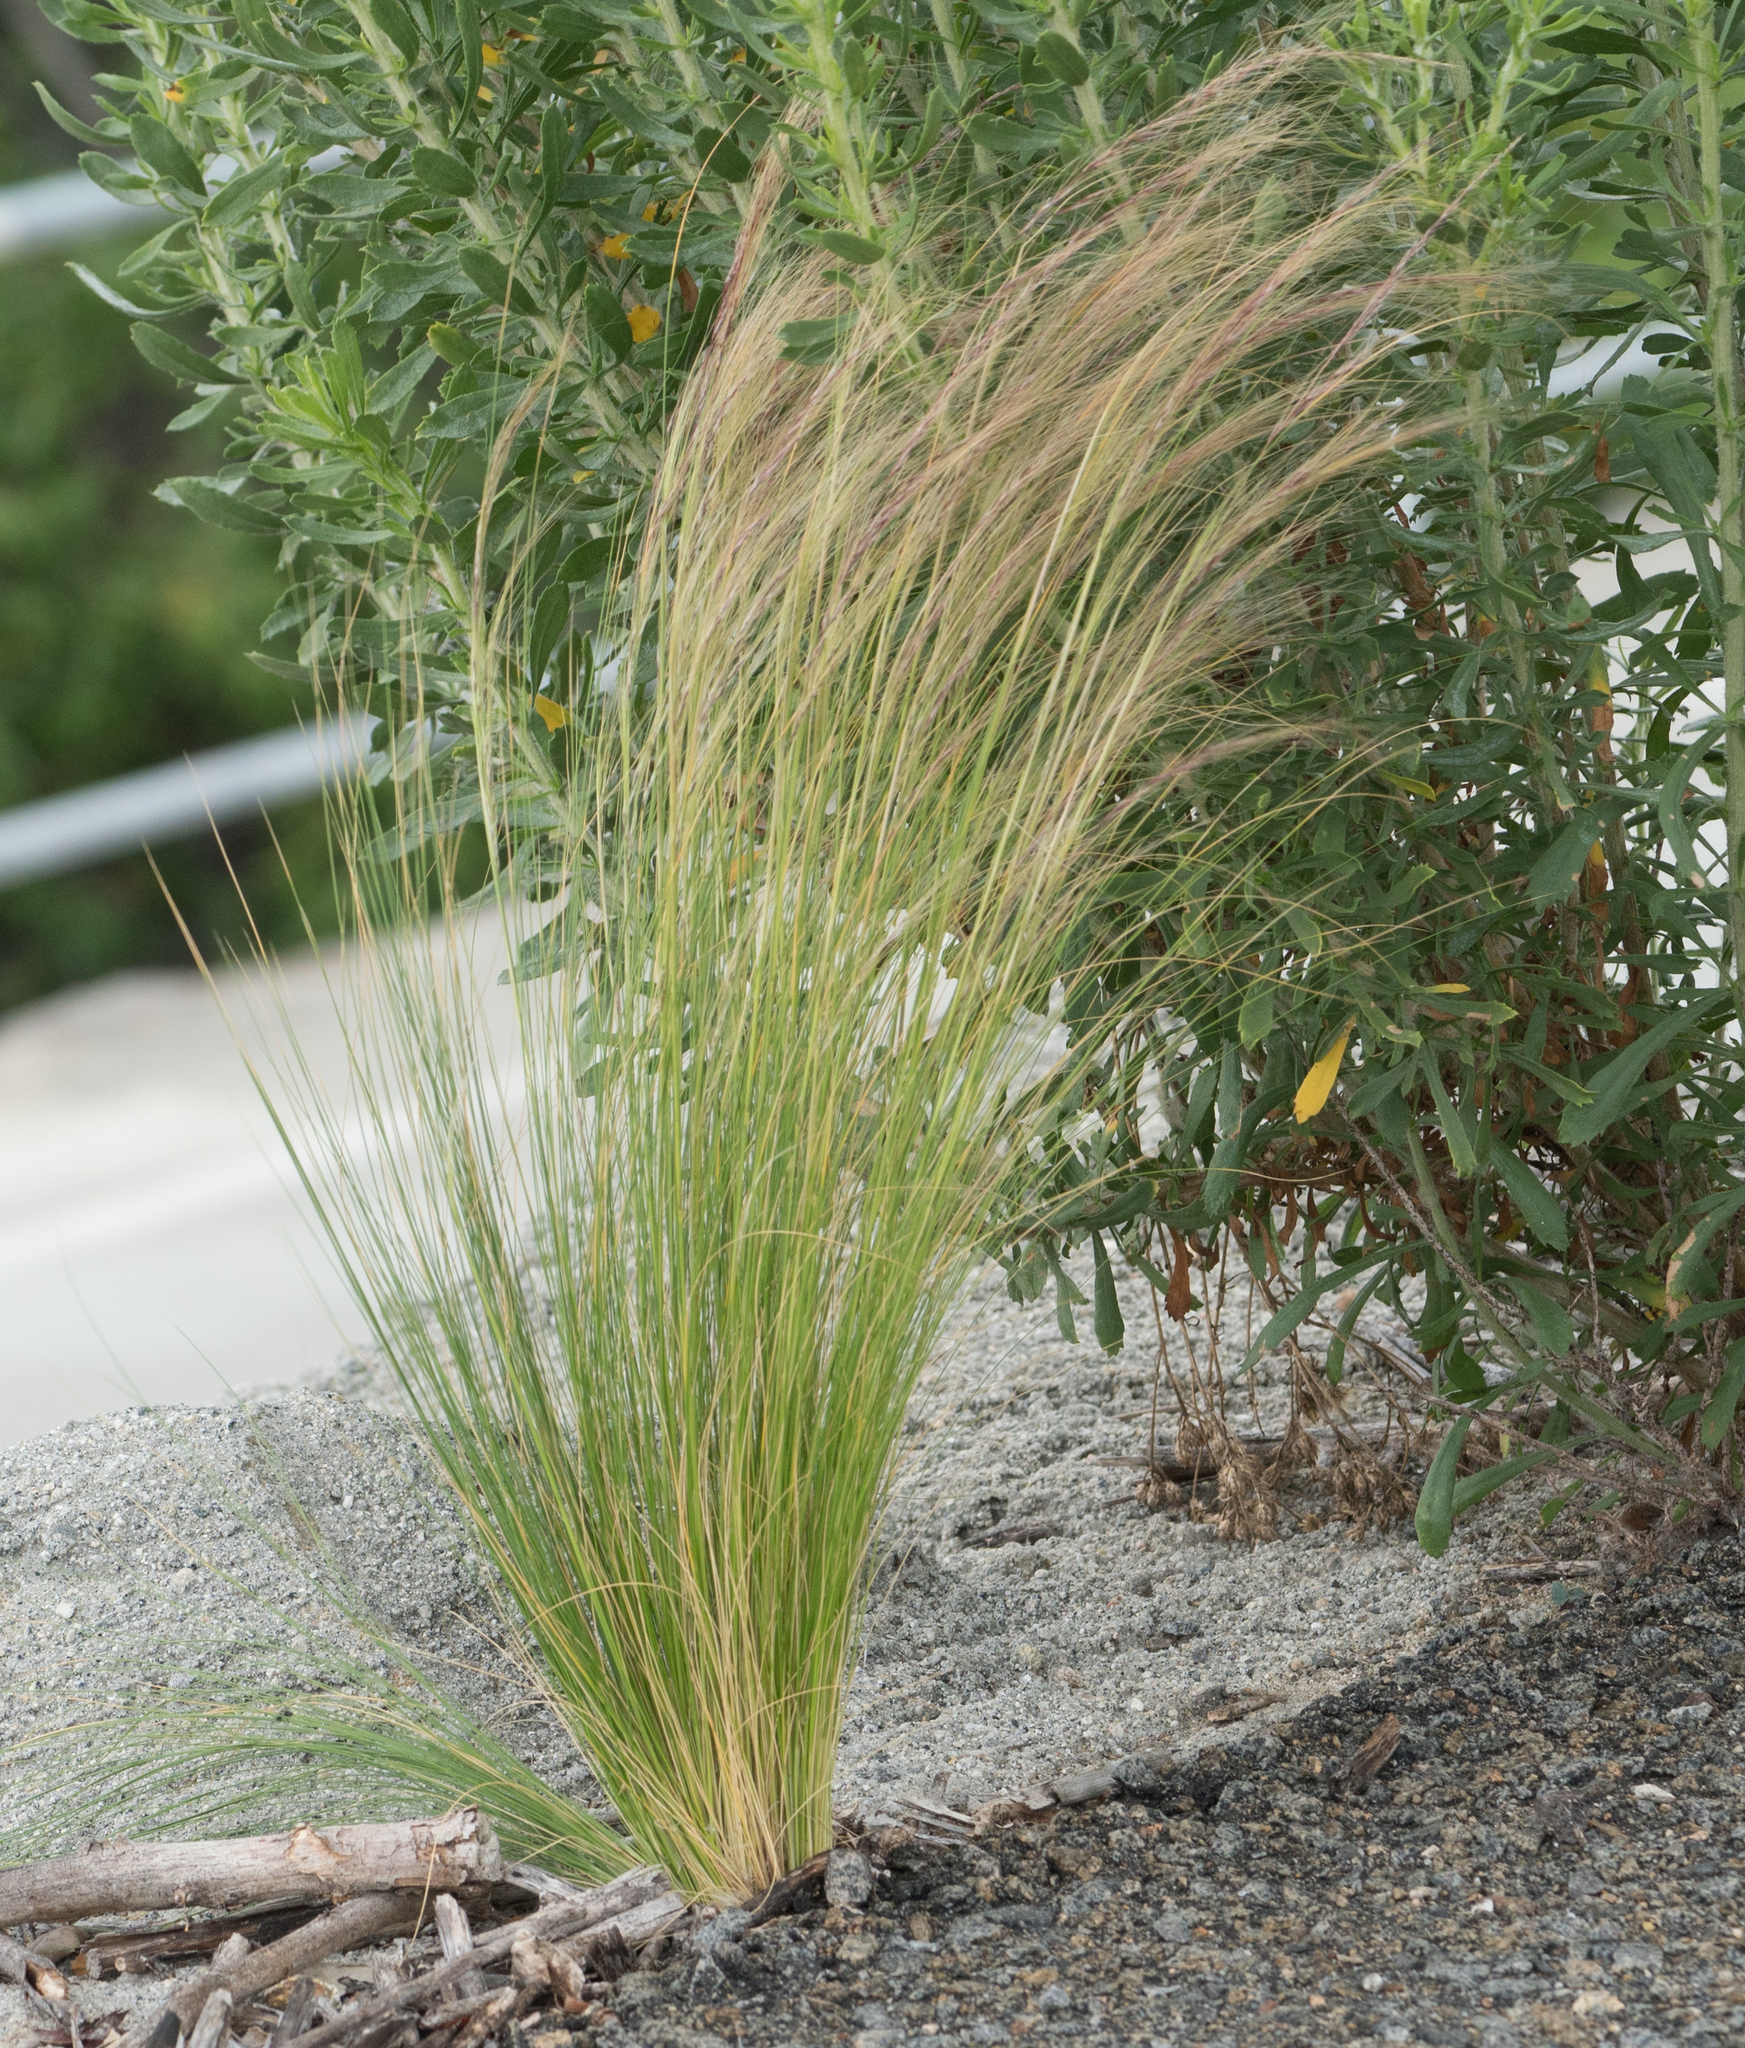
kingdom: Plantae
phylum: Tracheophyta
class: Liliopsida
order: Poales
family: Poaceae
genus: Nassella
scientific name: Nassella tenuissima
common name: Argentine needlegrass
